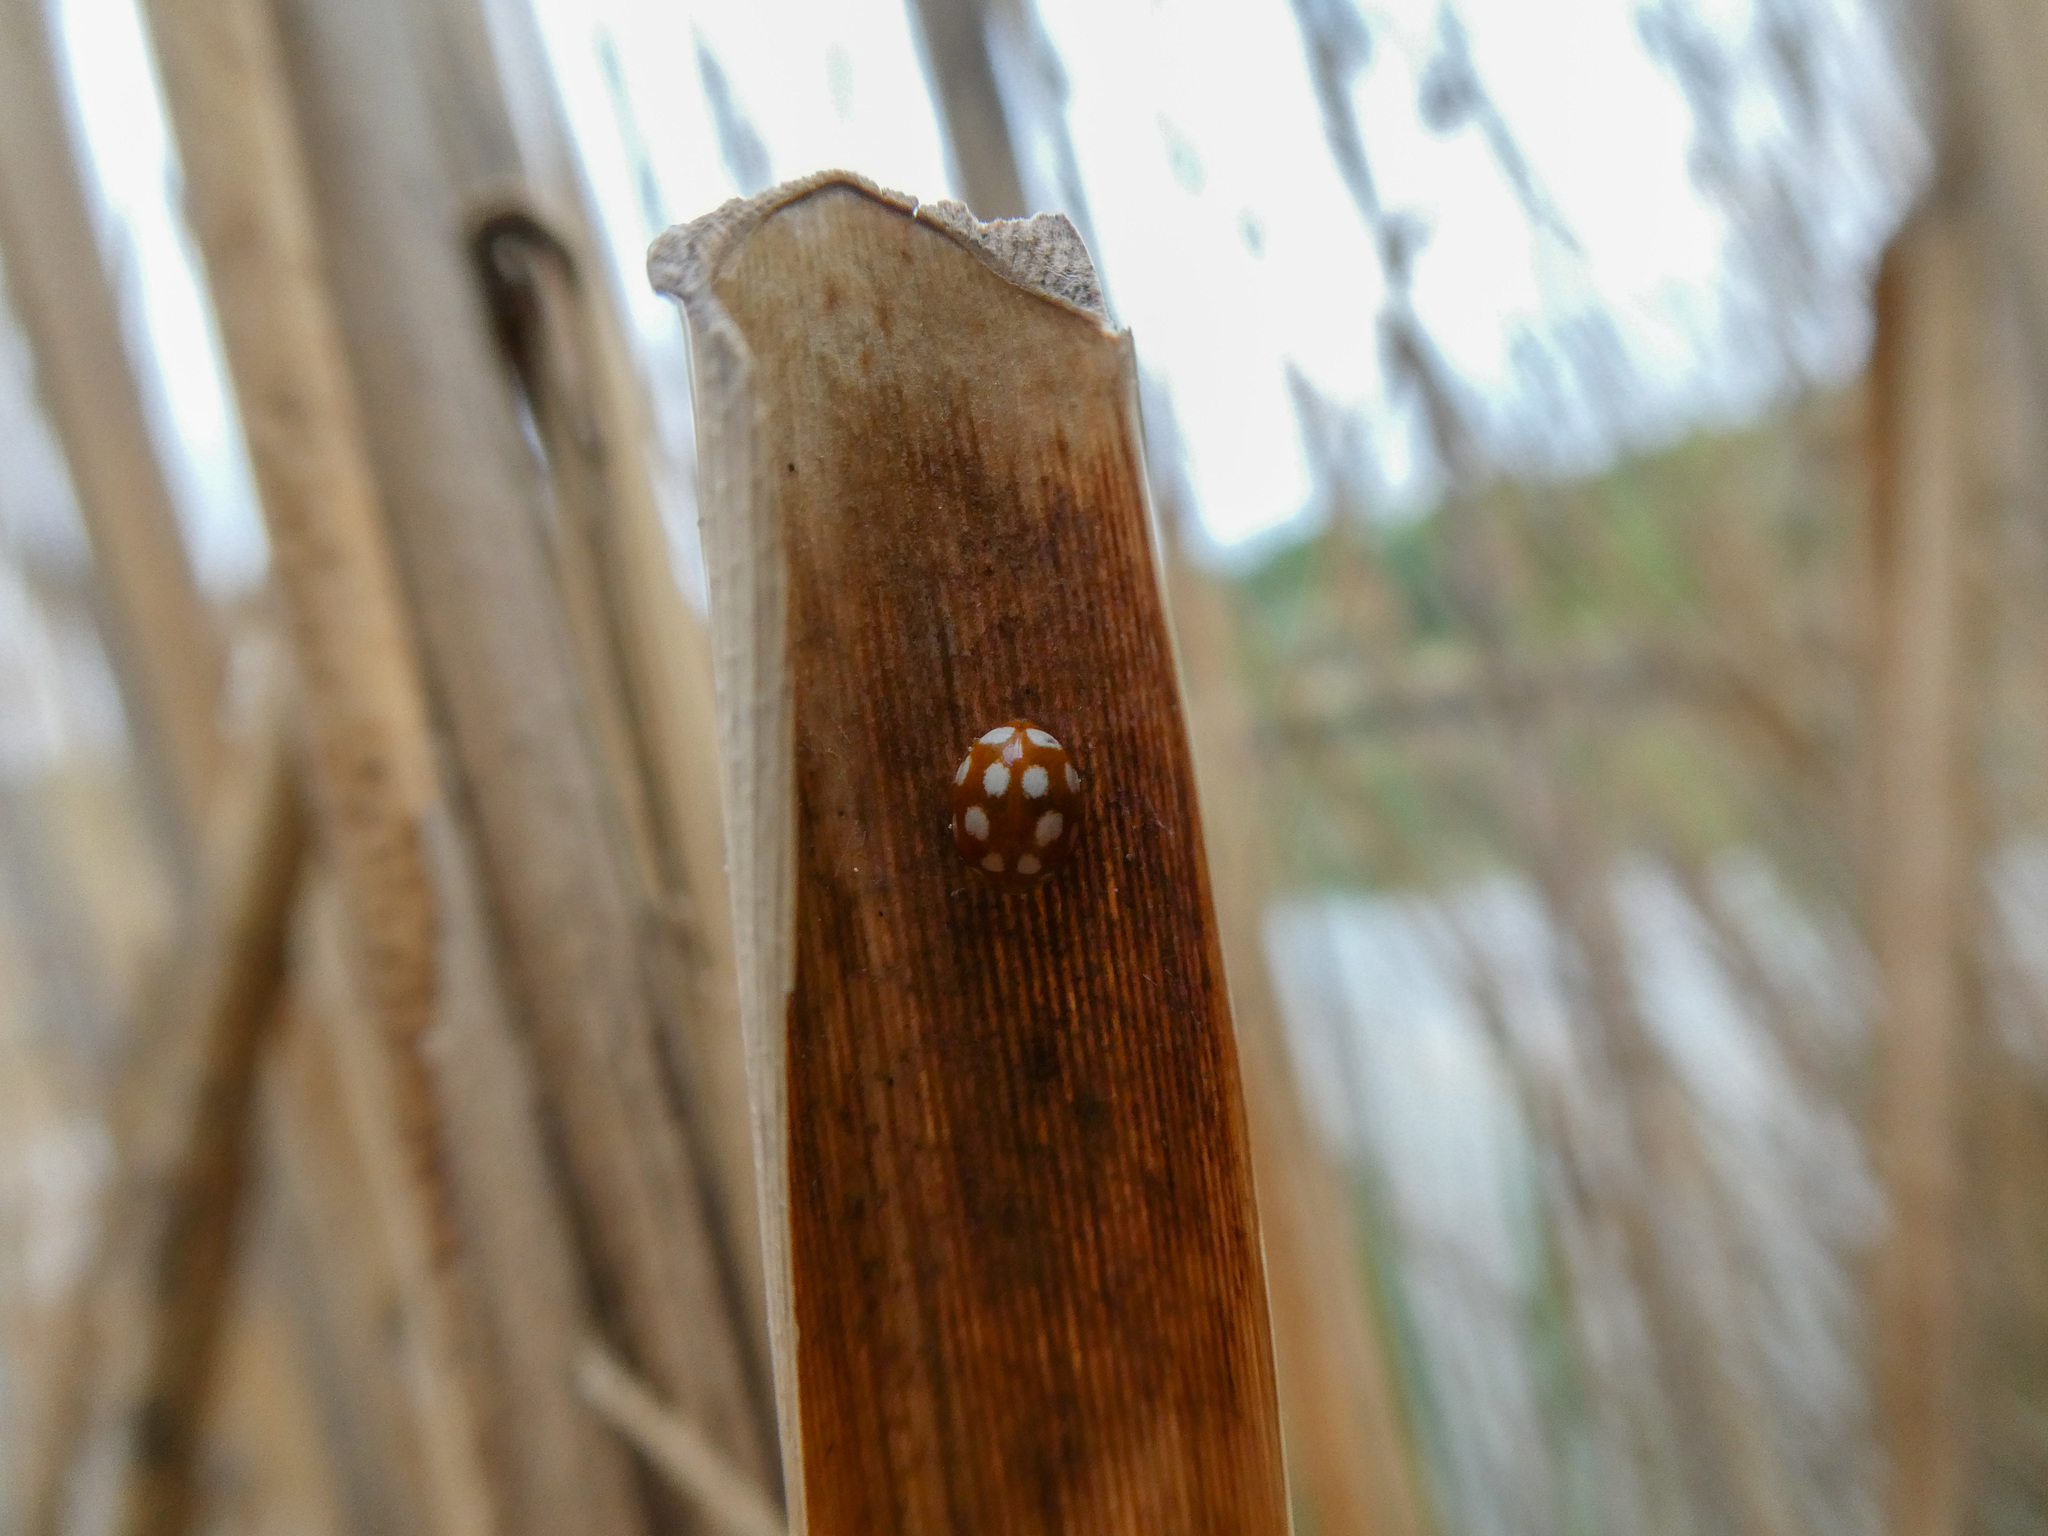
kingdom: Animalia
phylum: Arthropoda
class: Insecta
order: Coleoptera
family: Coccinellidae
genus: Vibidia
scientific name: Vibidia duodecimguttata
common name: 12-spot ladybird
